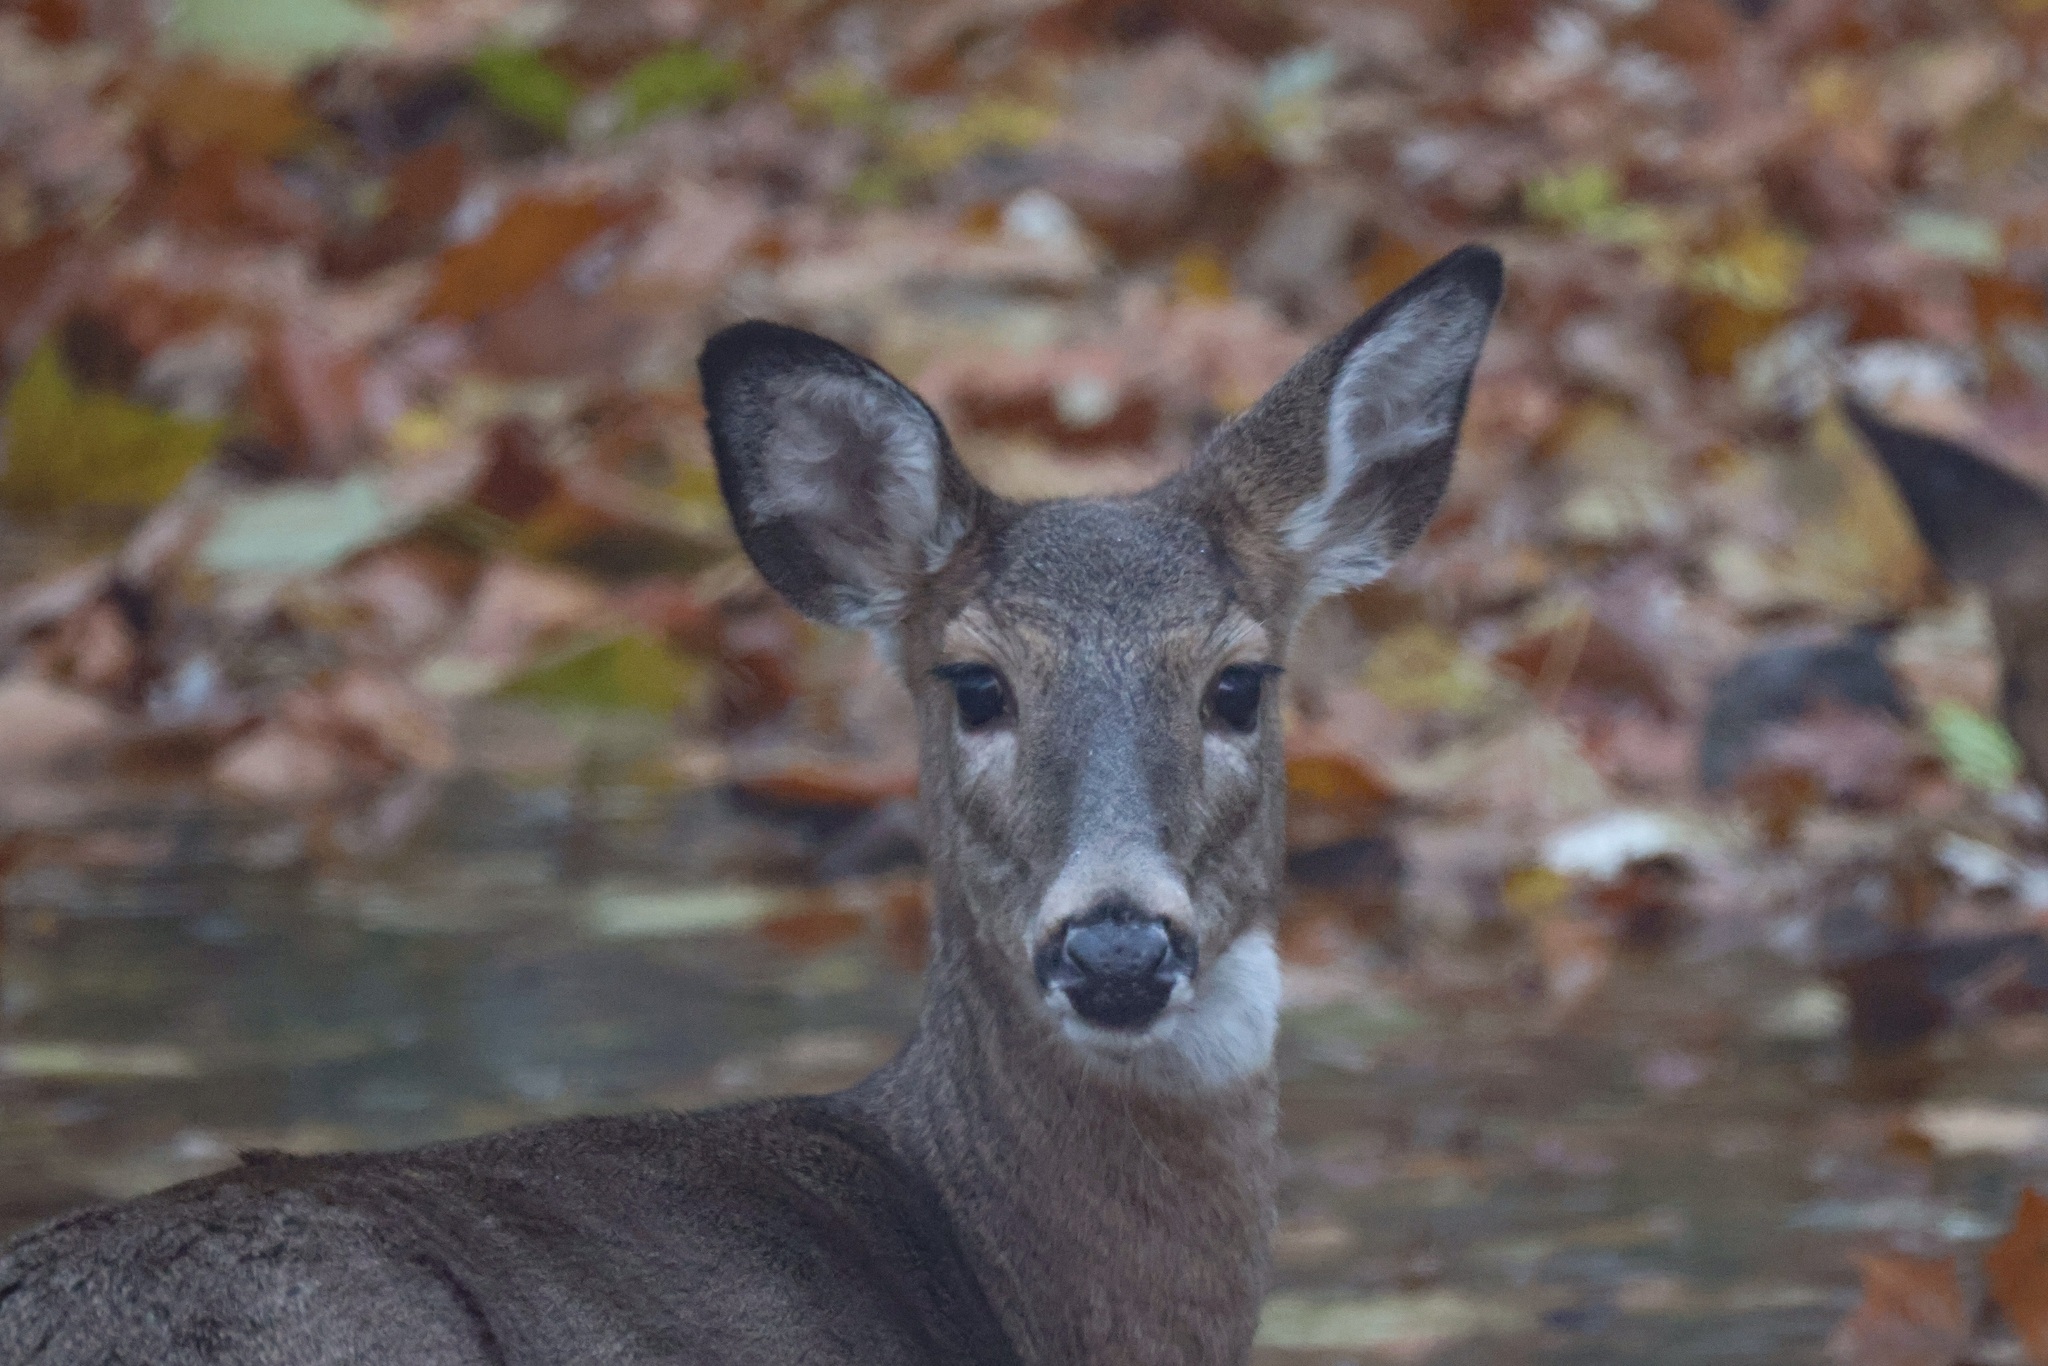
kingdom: Animalia
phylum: Chordata
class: Mammalia
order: Artiodactyla
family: Cervidae
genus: Odocoileus
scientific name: Odocoileus virginianus
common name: White-tailed deer
